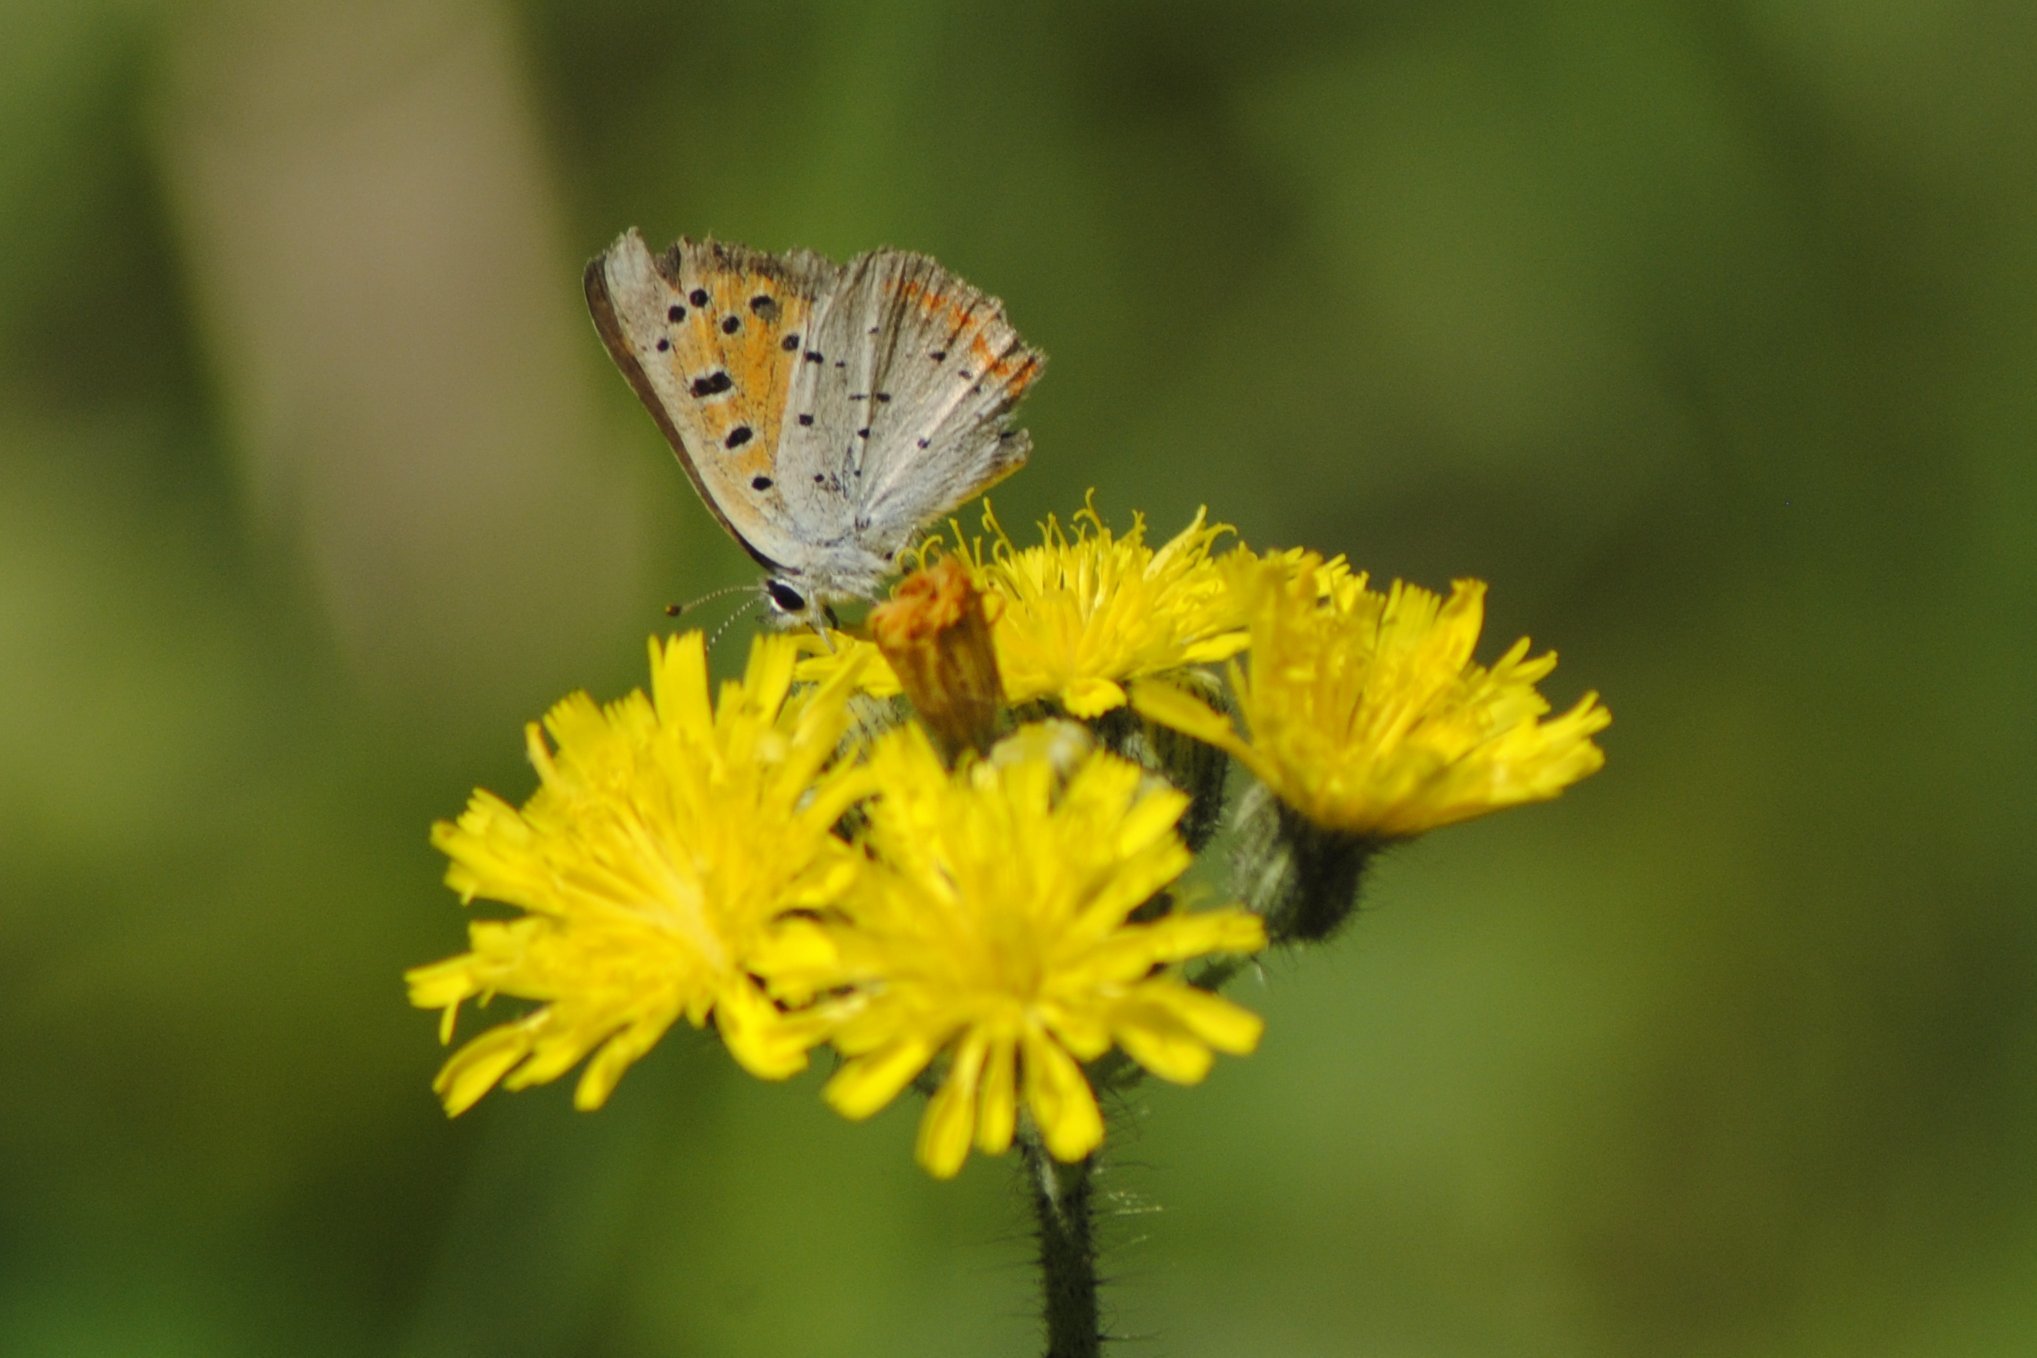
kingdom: Animalia
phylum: Arthropoda
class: Insecta
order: Lepidoptera
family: Lycaenidae
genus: Lycaena
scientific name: Lycaena hypophlaeas
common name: American copper
